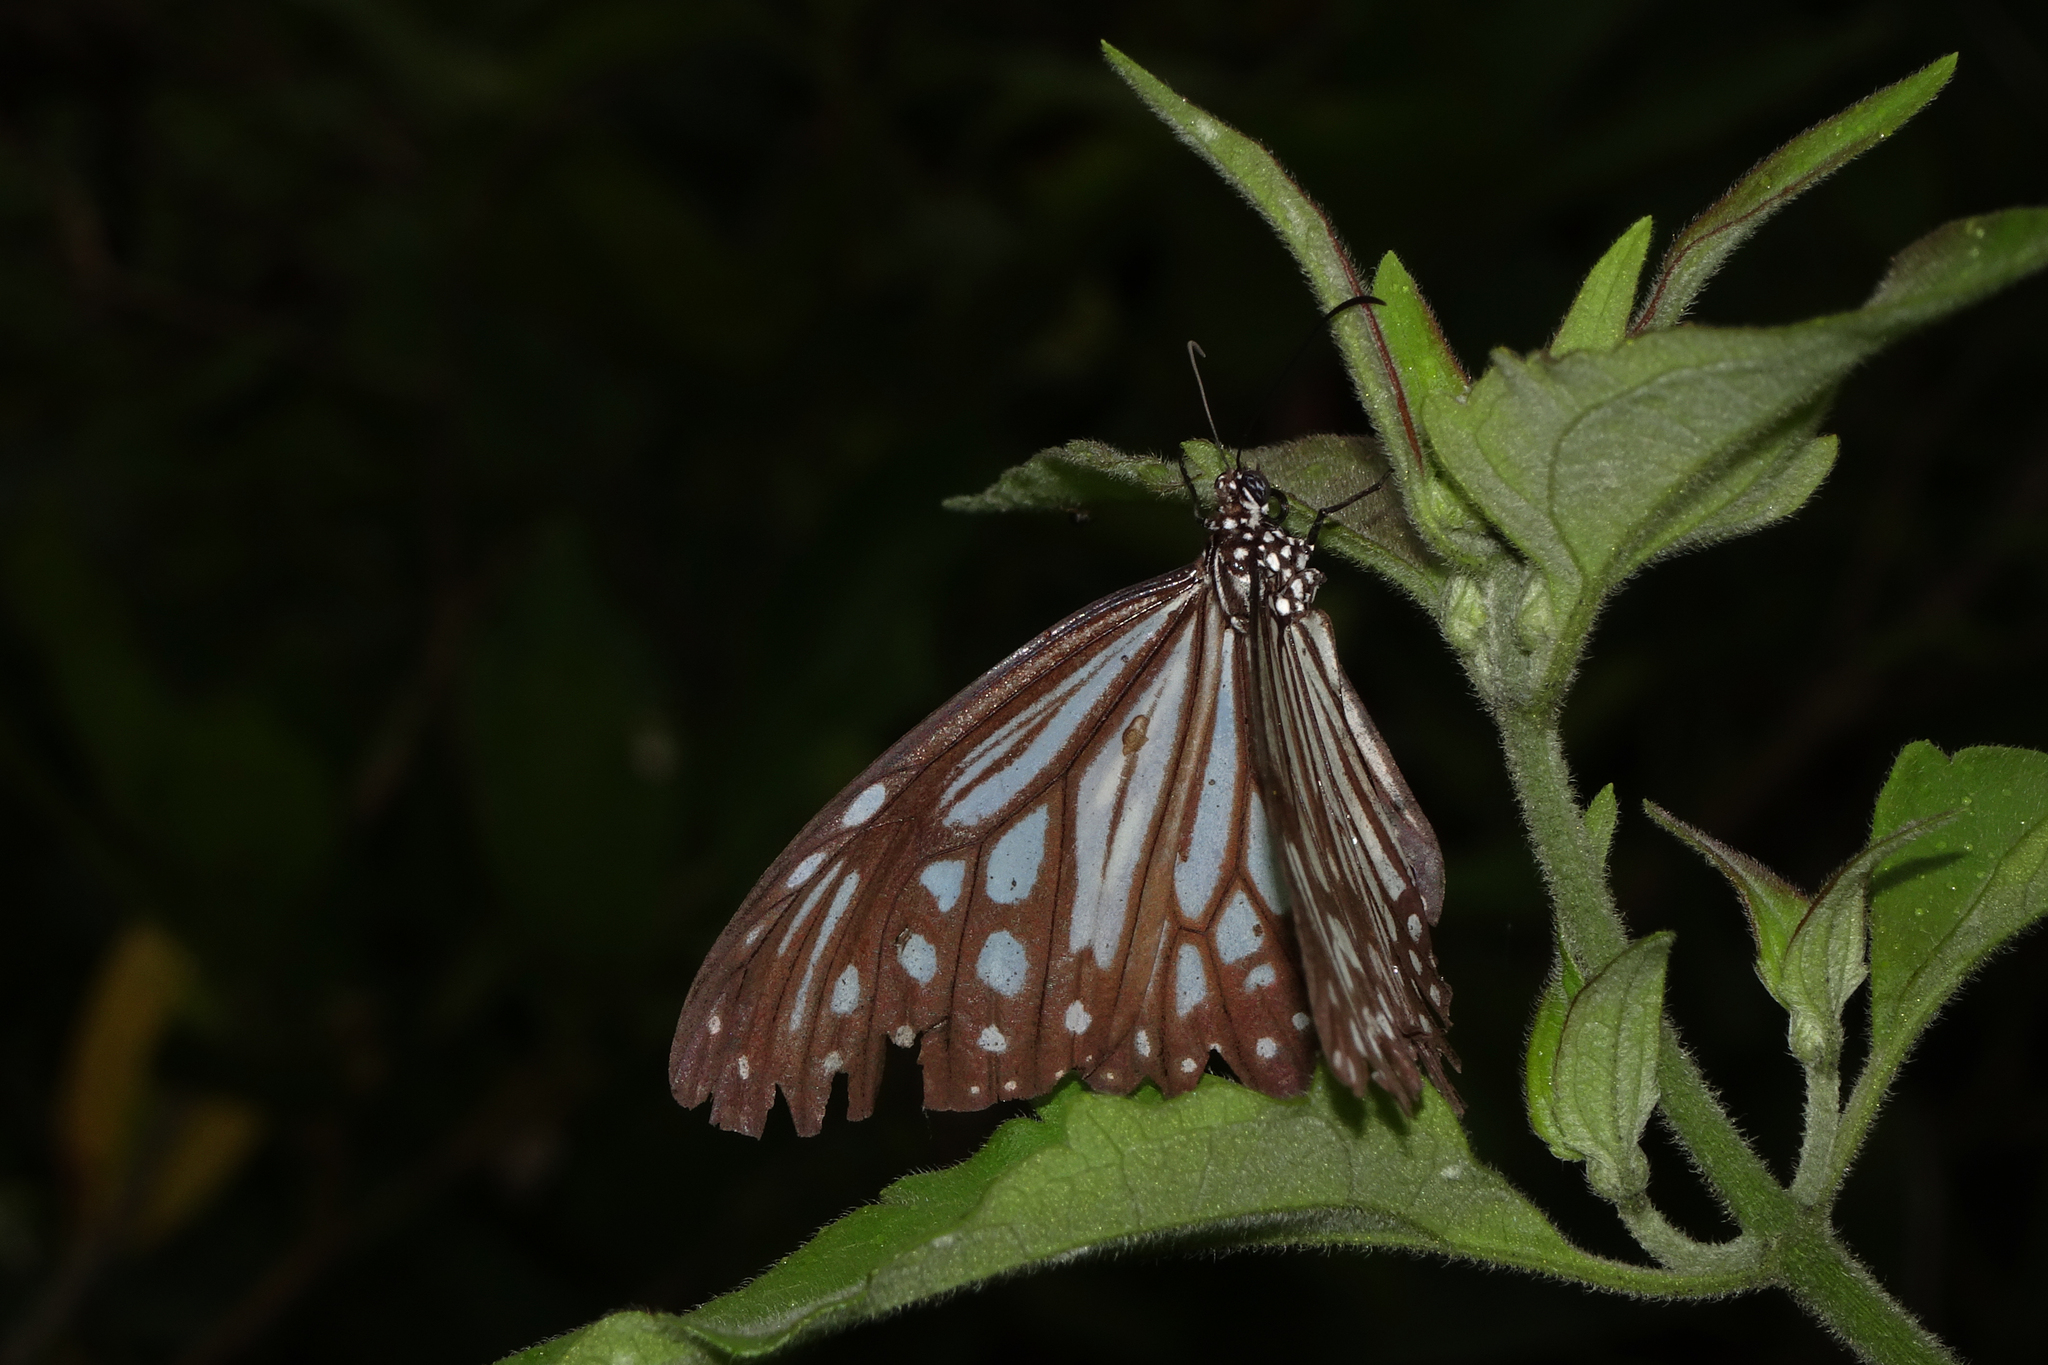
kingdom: Animalia
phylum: Arthropoda
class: Insecta
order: Lepidoptera
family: Nymphalidae
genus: Parantica
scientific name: Parantica aglea
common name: Glassy tiger
